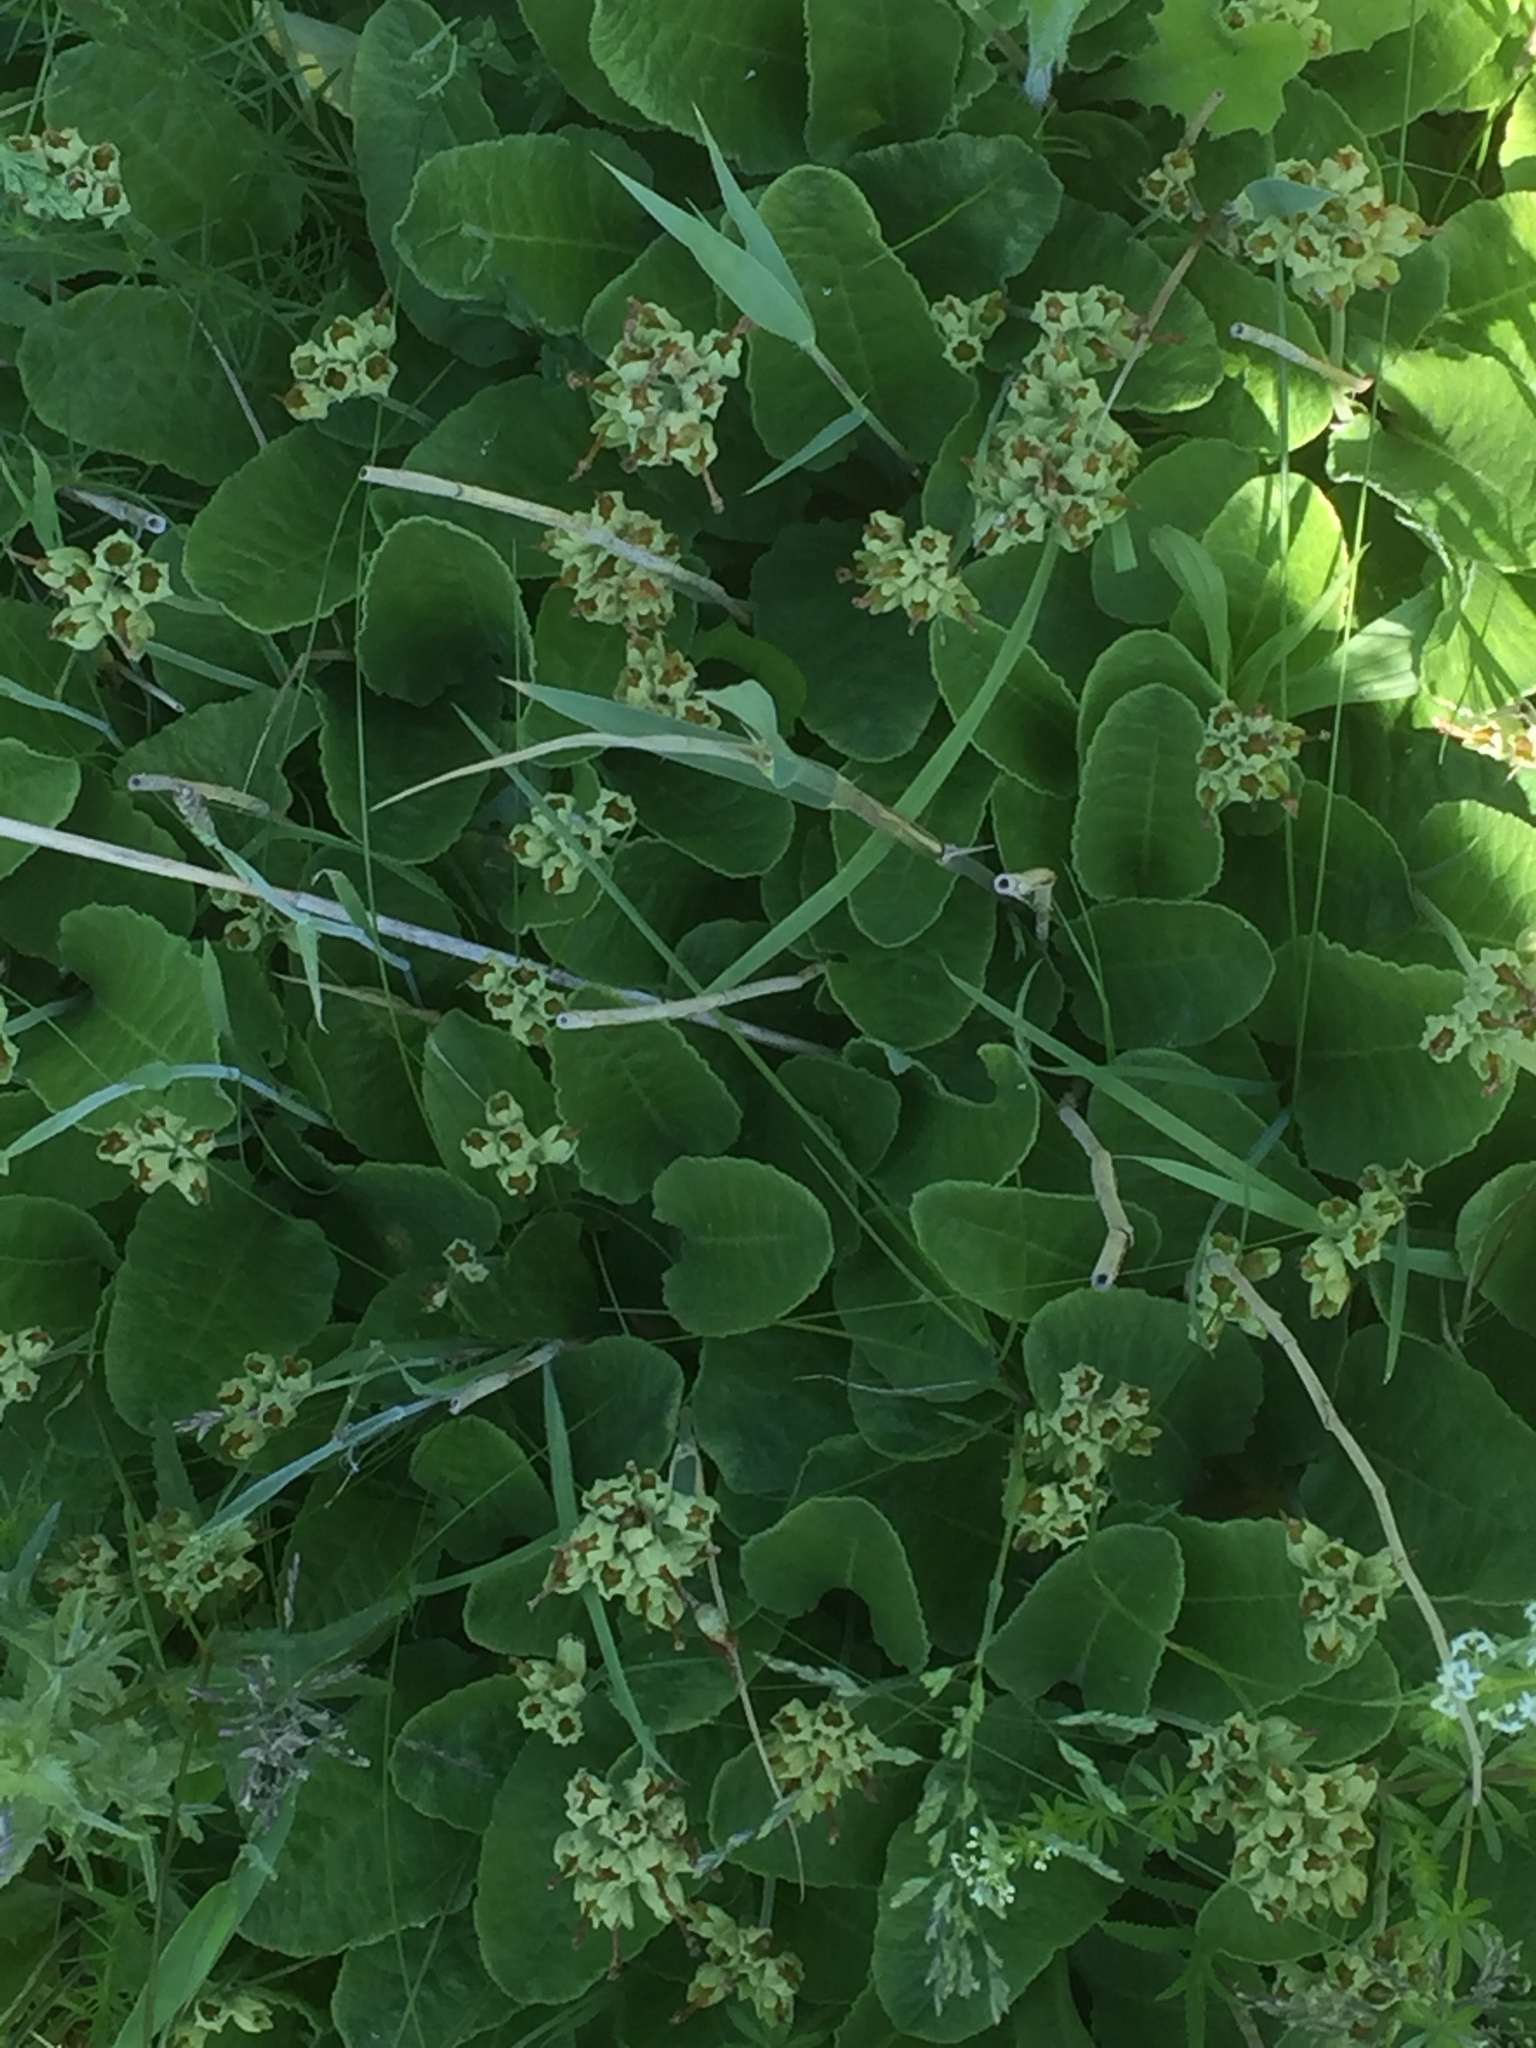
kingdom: Plantae
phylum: Tracheophyta
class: Magnoliopsida
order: Ericales
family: Primulaceae
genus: Primula
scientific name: Primula veris
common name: Cowslip
